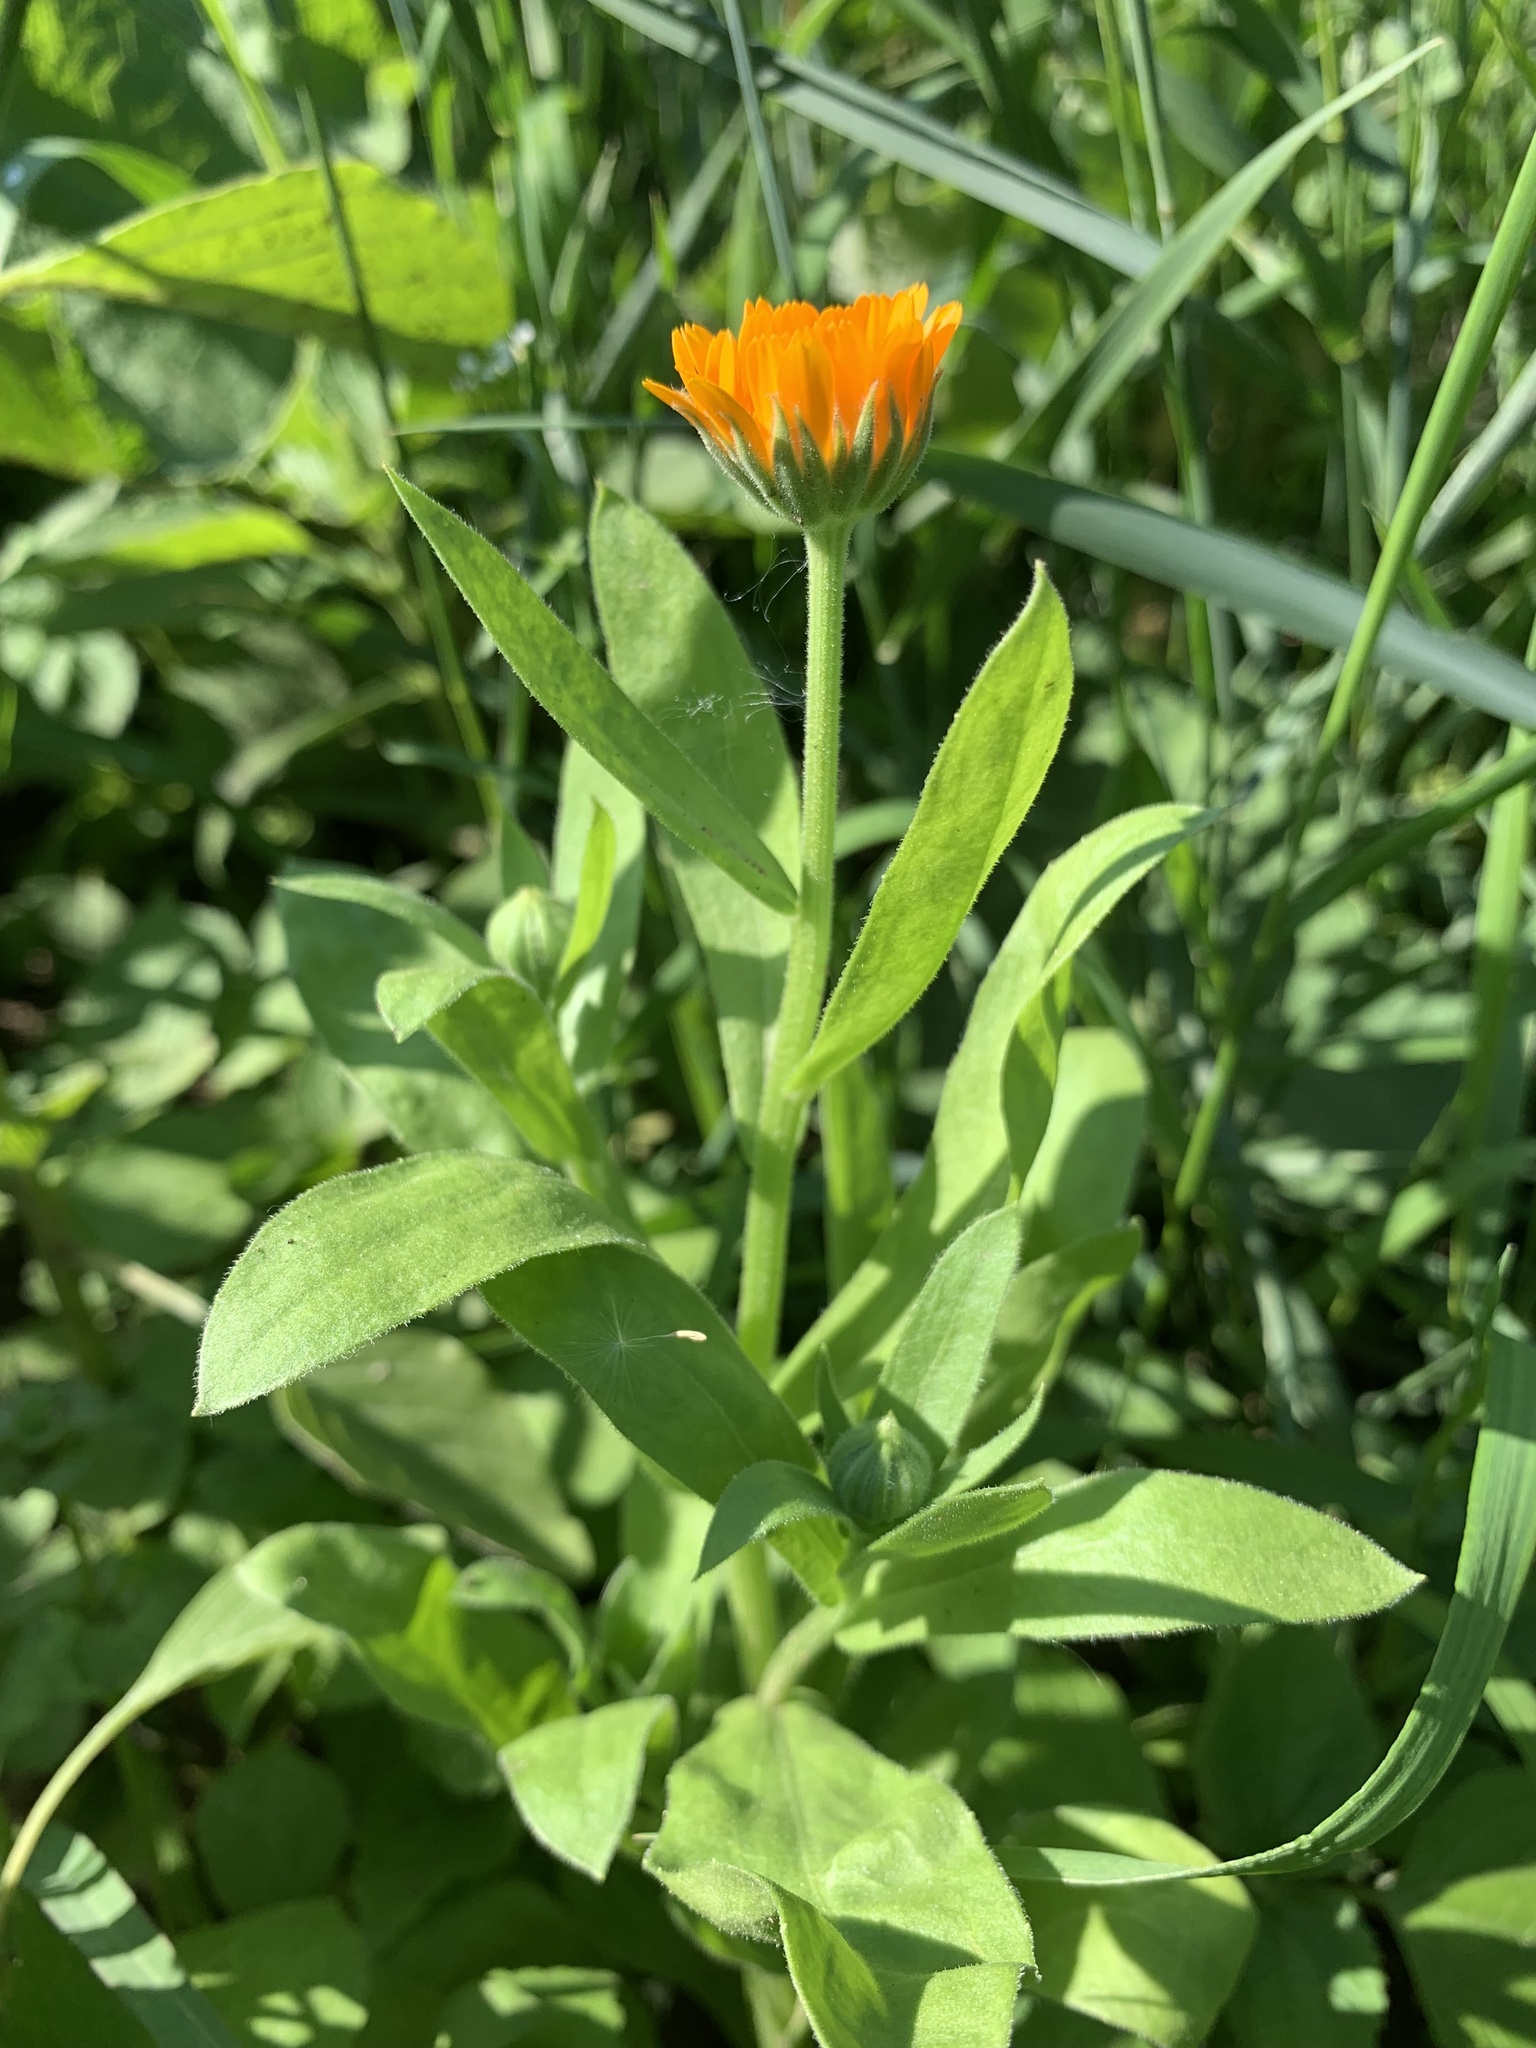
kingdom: Plantae
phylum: Tracheophyta
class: Magnoliopsida
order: Asterales
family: Asteraceae
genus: Calendula
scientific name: Calendula officinalis
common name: Pot marigold
